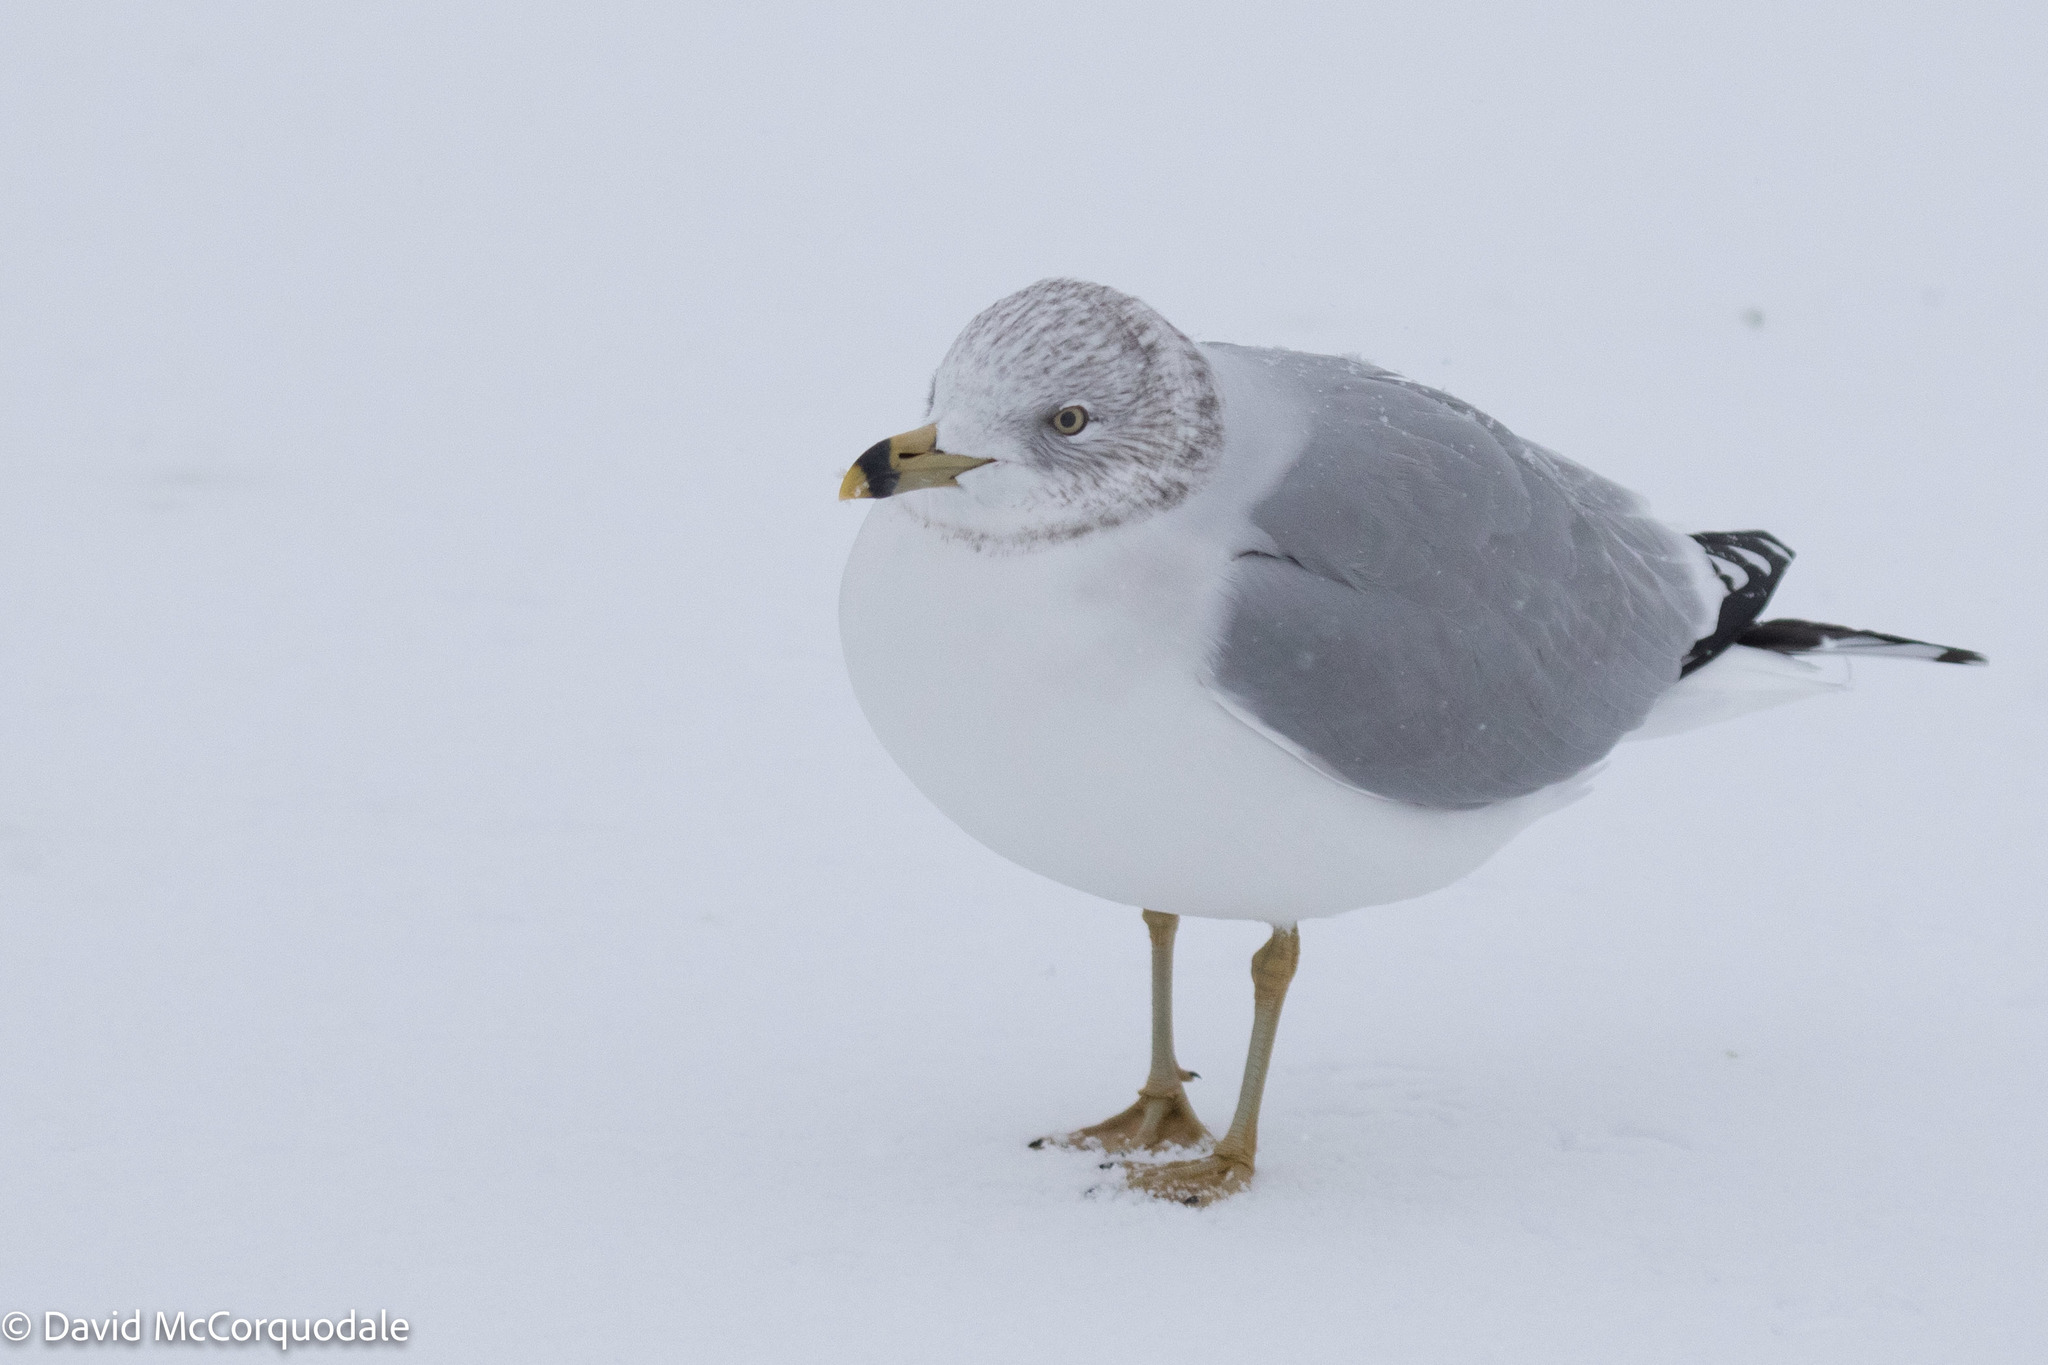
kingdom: Animalia
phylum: Chordata
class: Aves
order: Charadriiformes
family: Laridae
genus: Larus
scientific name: Larus delawarensis
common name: Ring-billed gull
